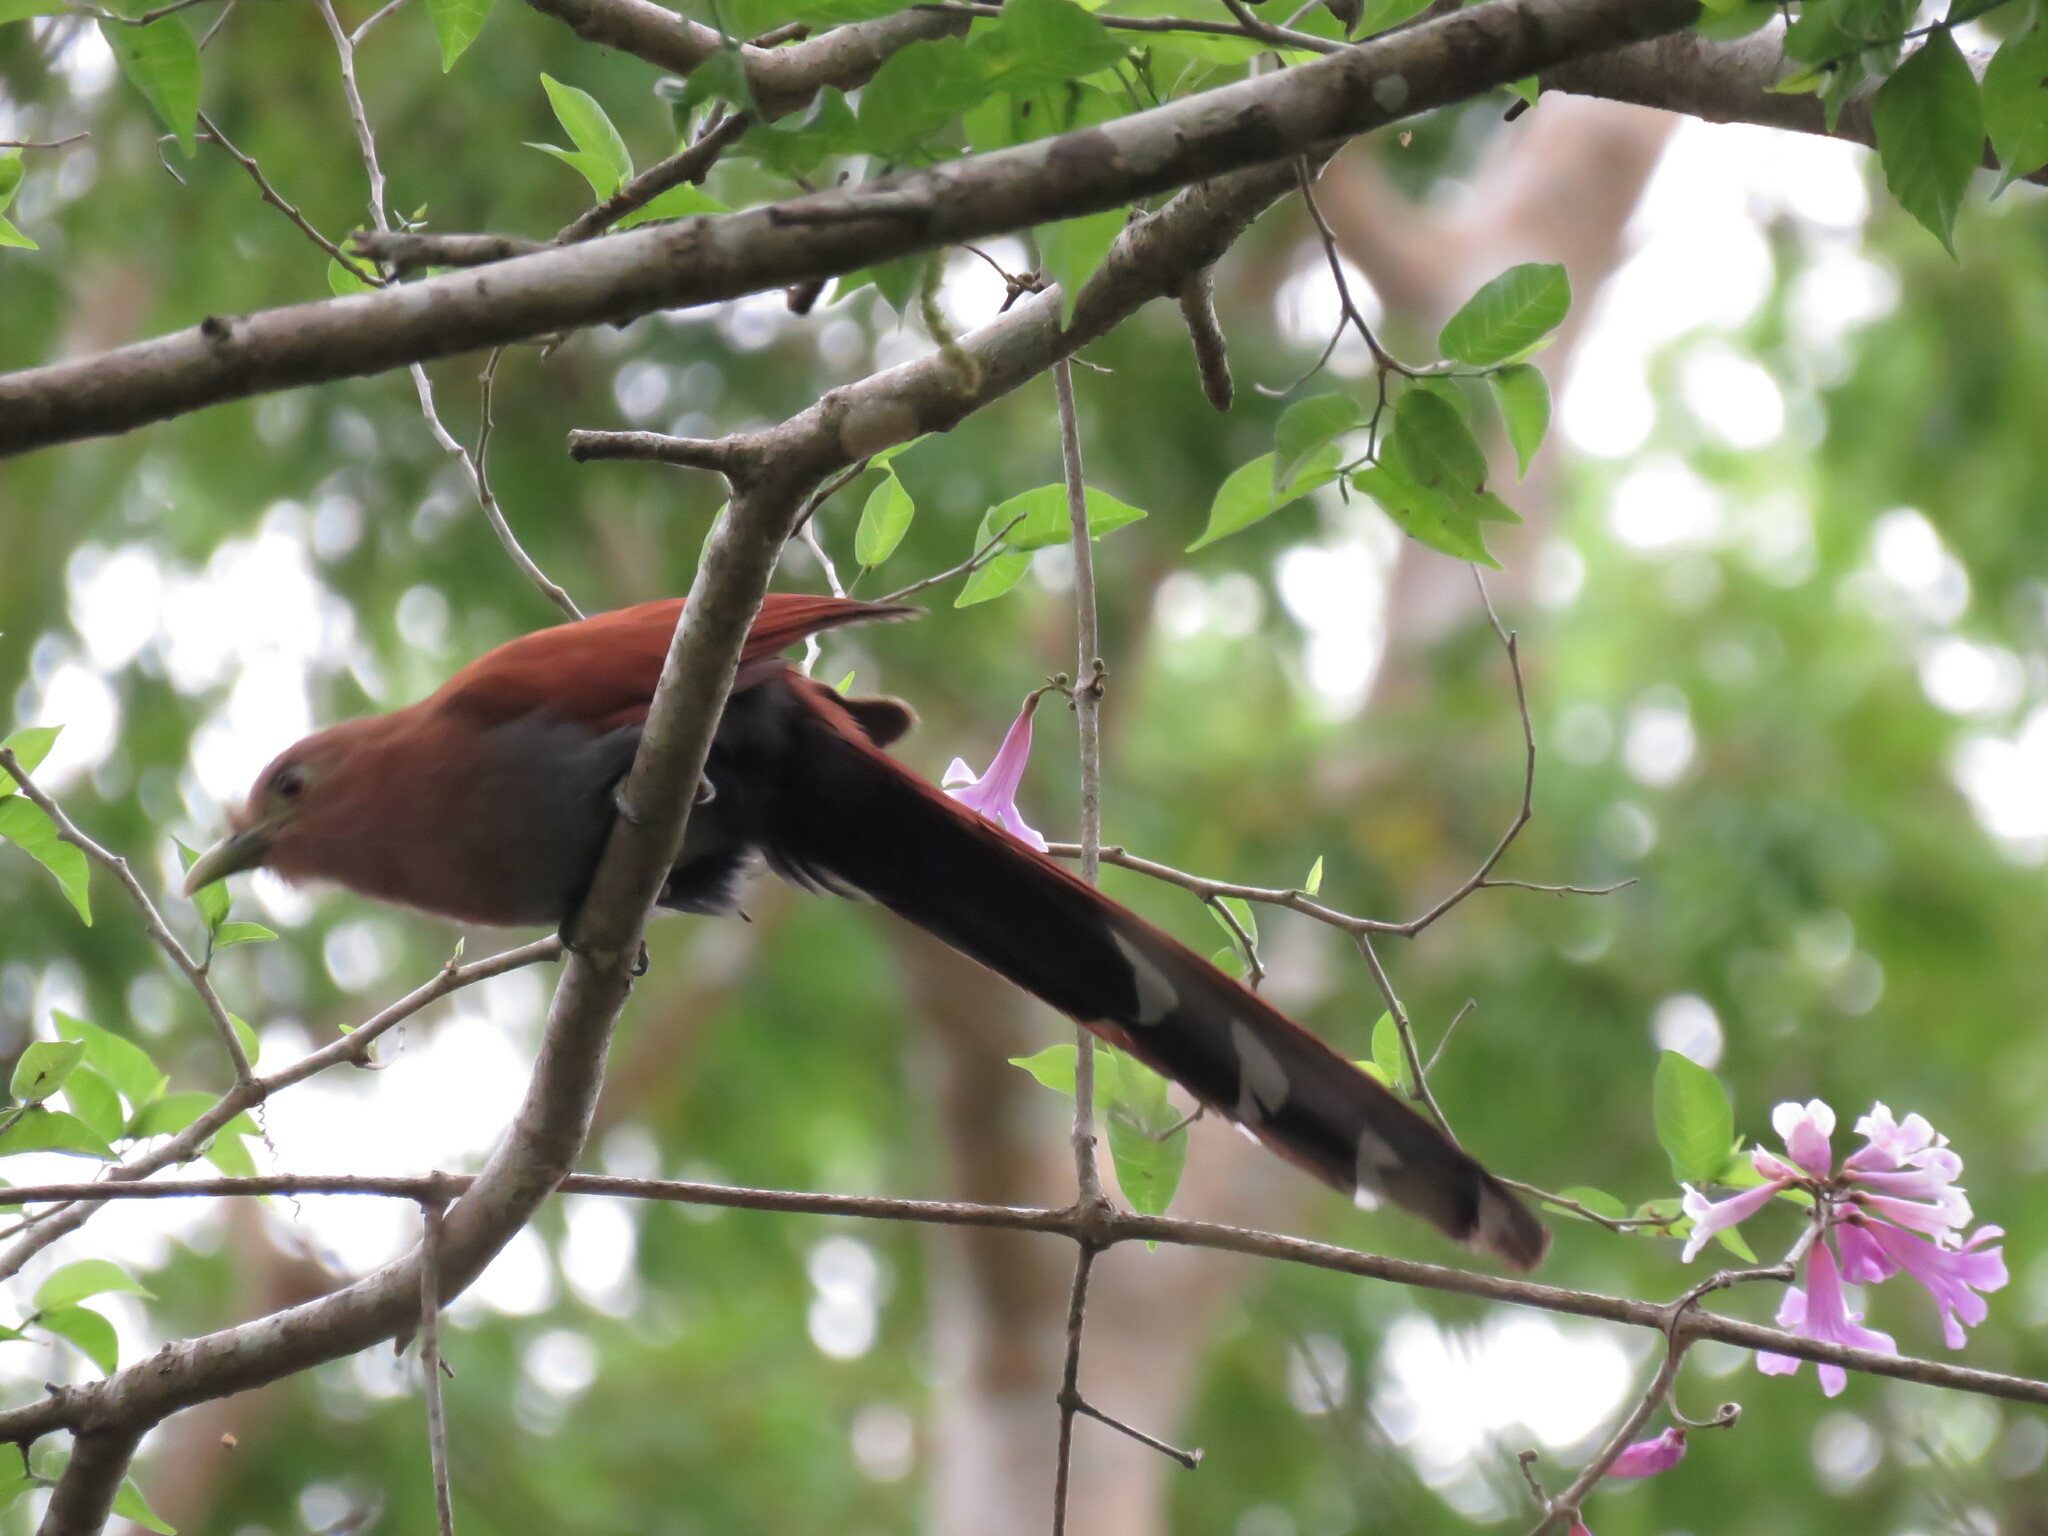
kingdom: Animalia
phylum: Chordata
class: Aves
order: Cuculiformes
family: Cuculidae
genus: Piaya
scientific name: Piaya cayana
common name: Squirrel cuckoo
